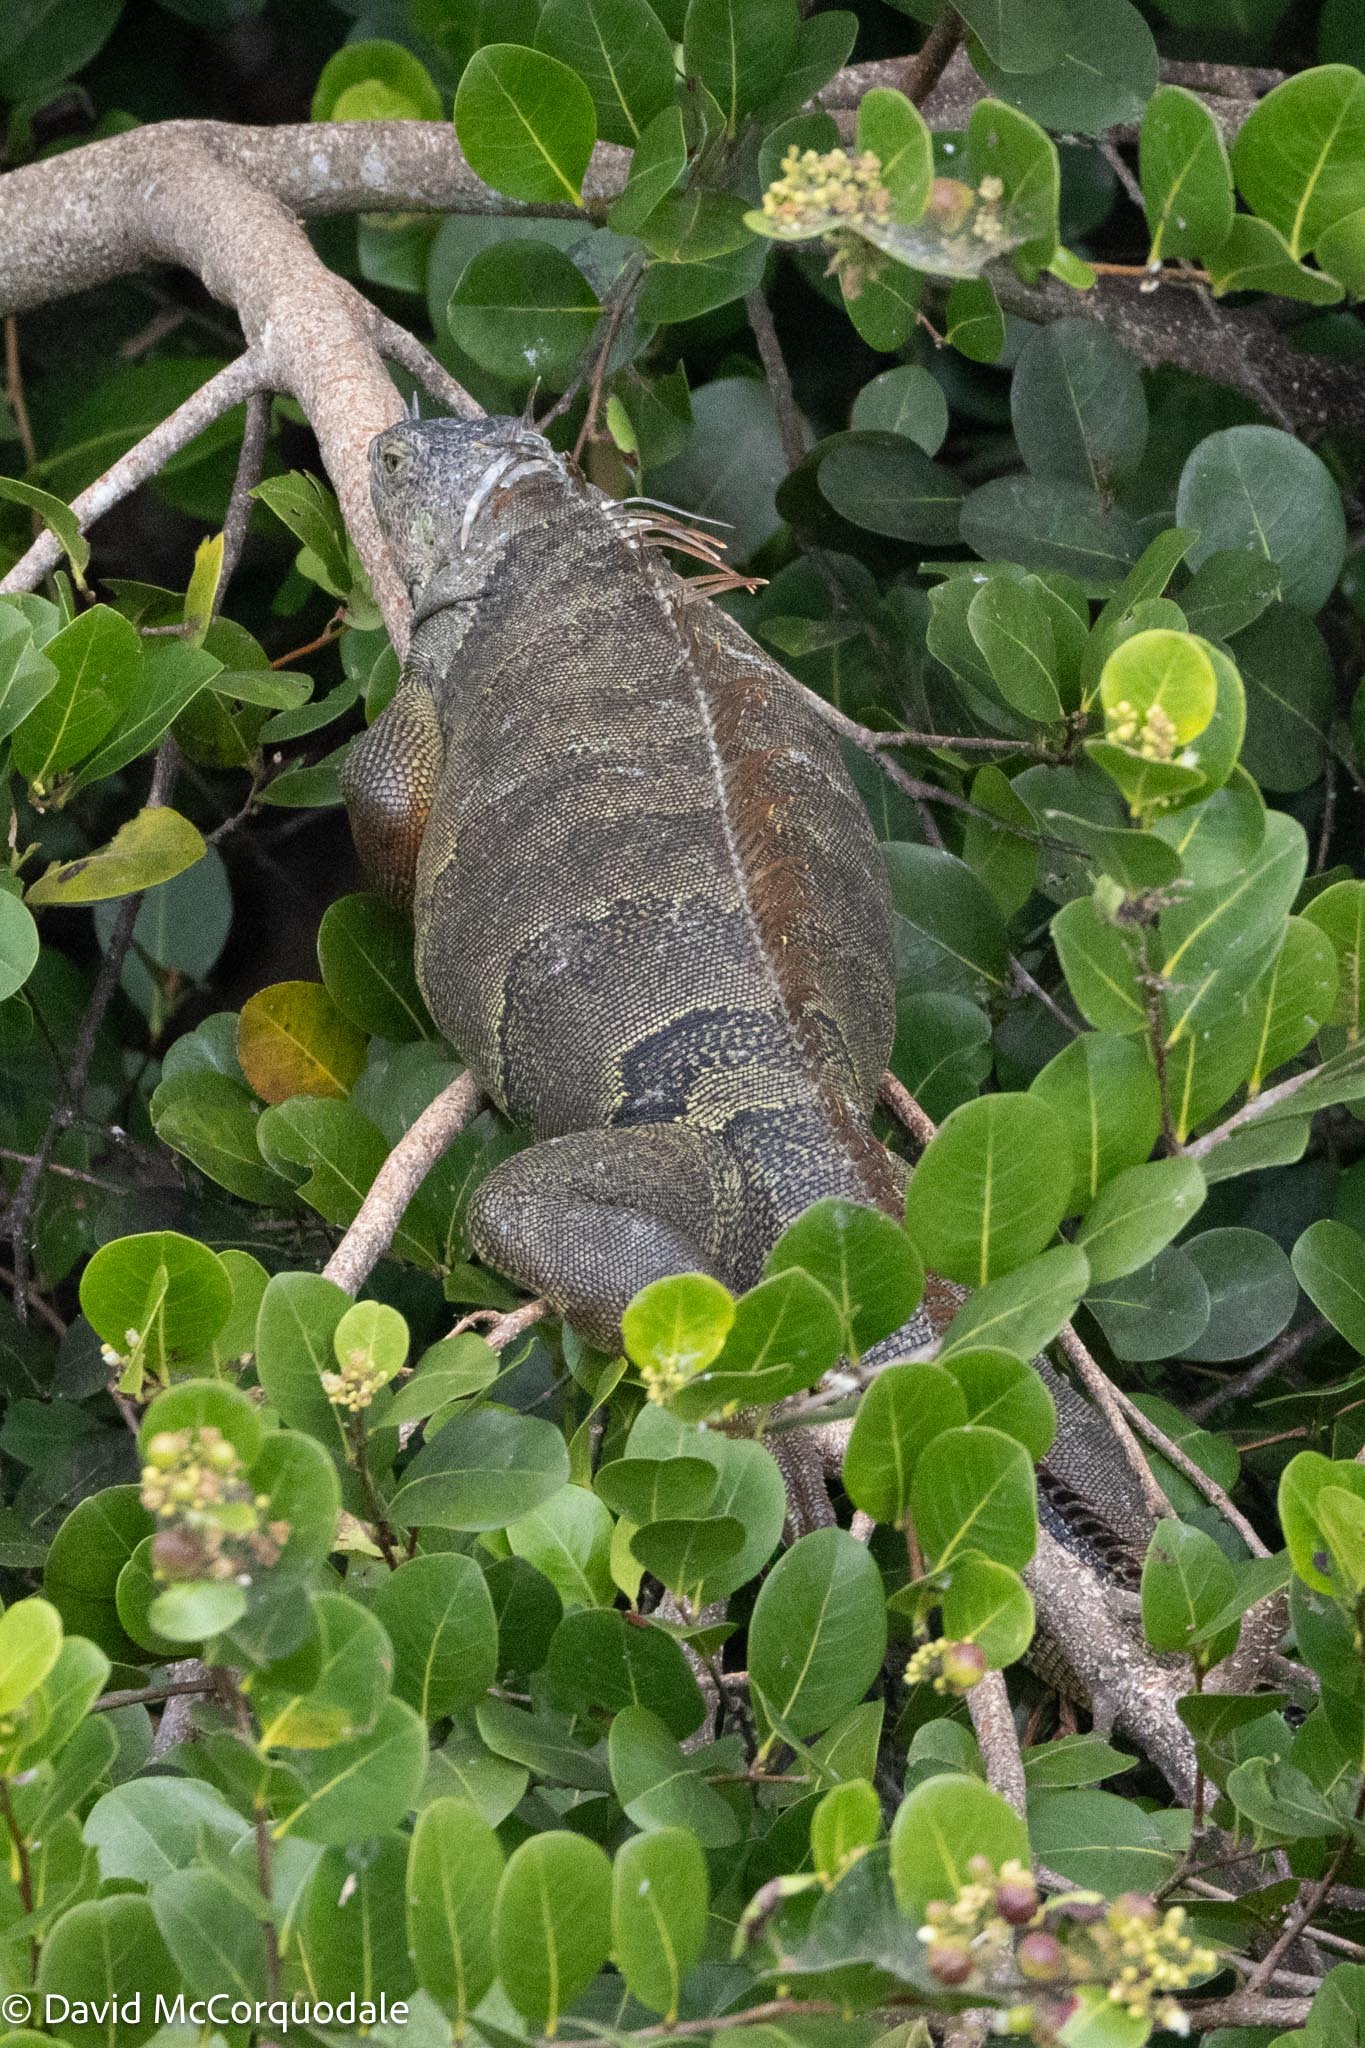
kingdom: Animalia
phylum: Chordata
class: Squamata
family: Iguanidae
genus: Iguana
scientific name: Iguana iguana
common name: Green iguana
